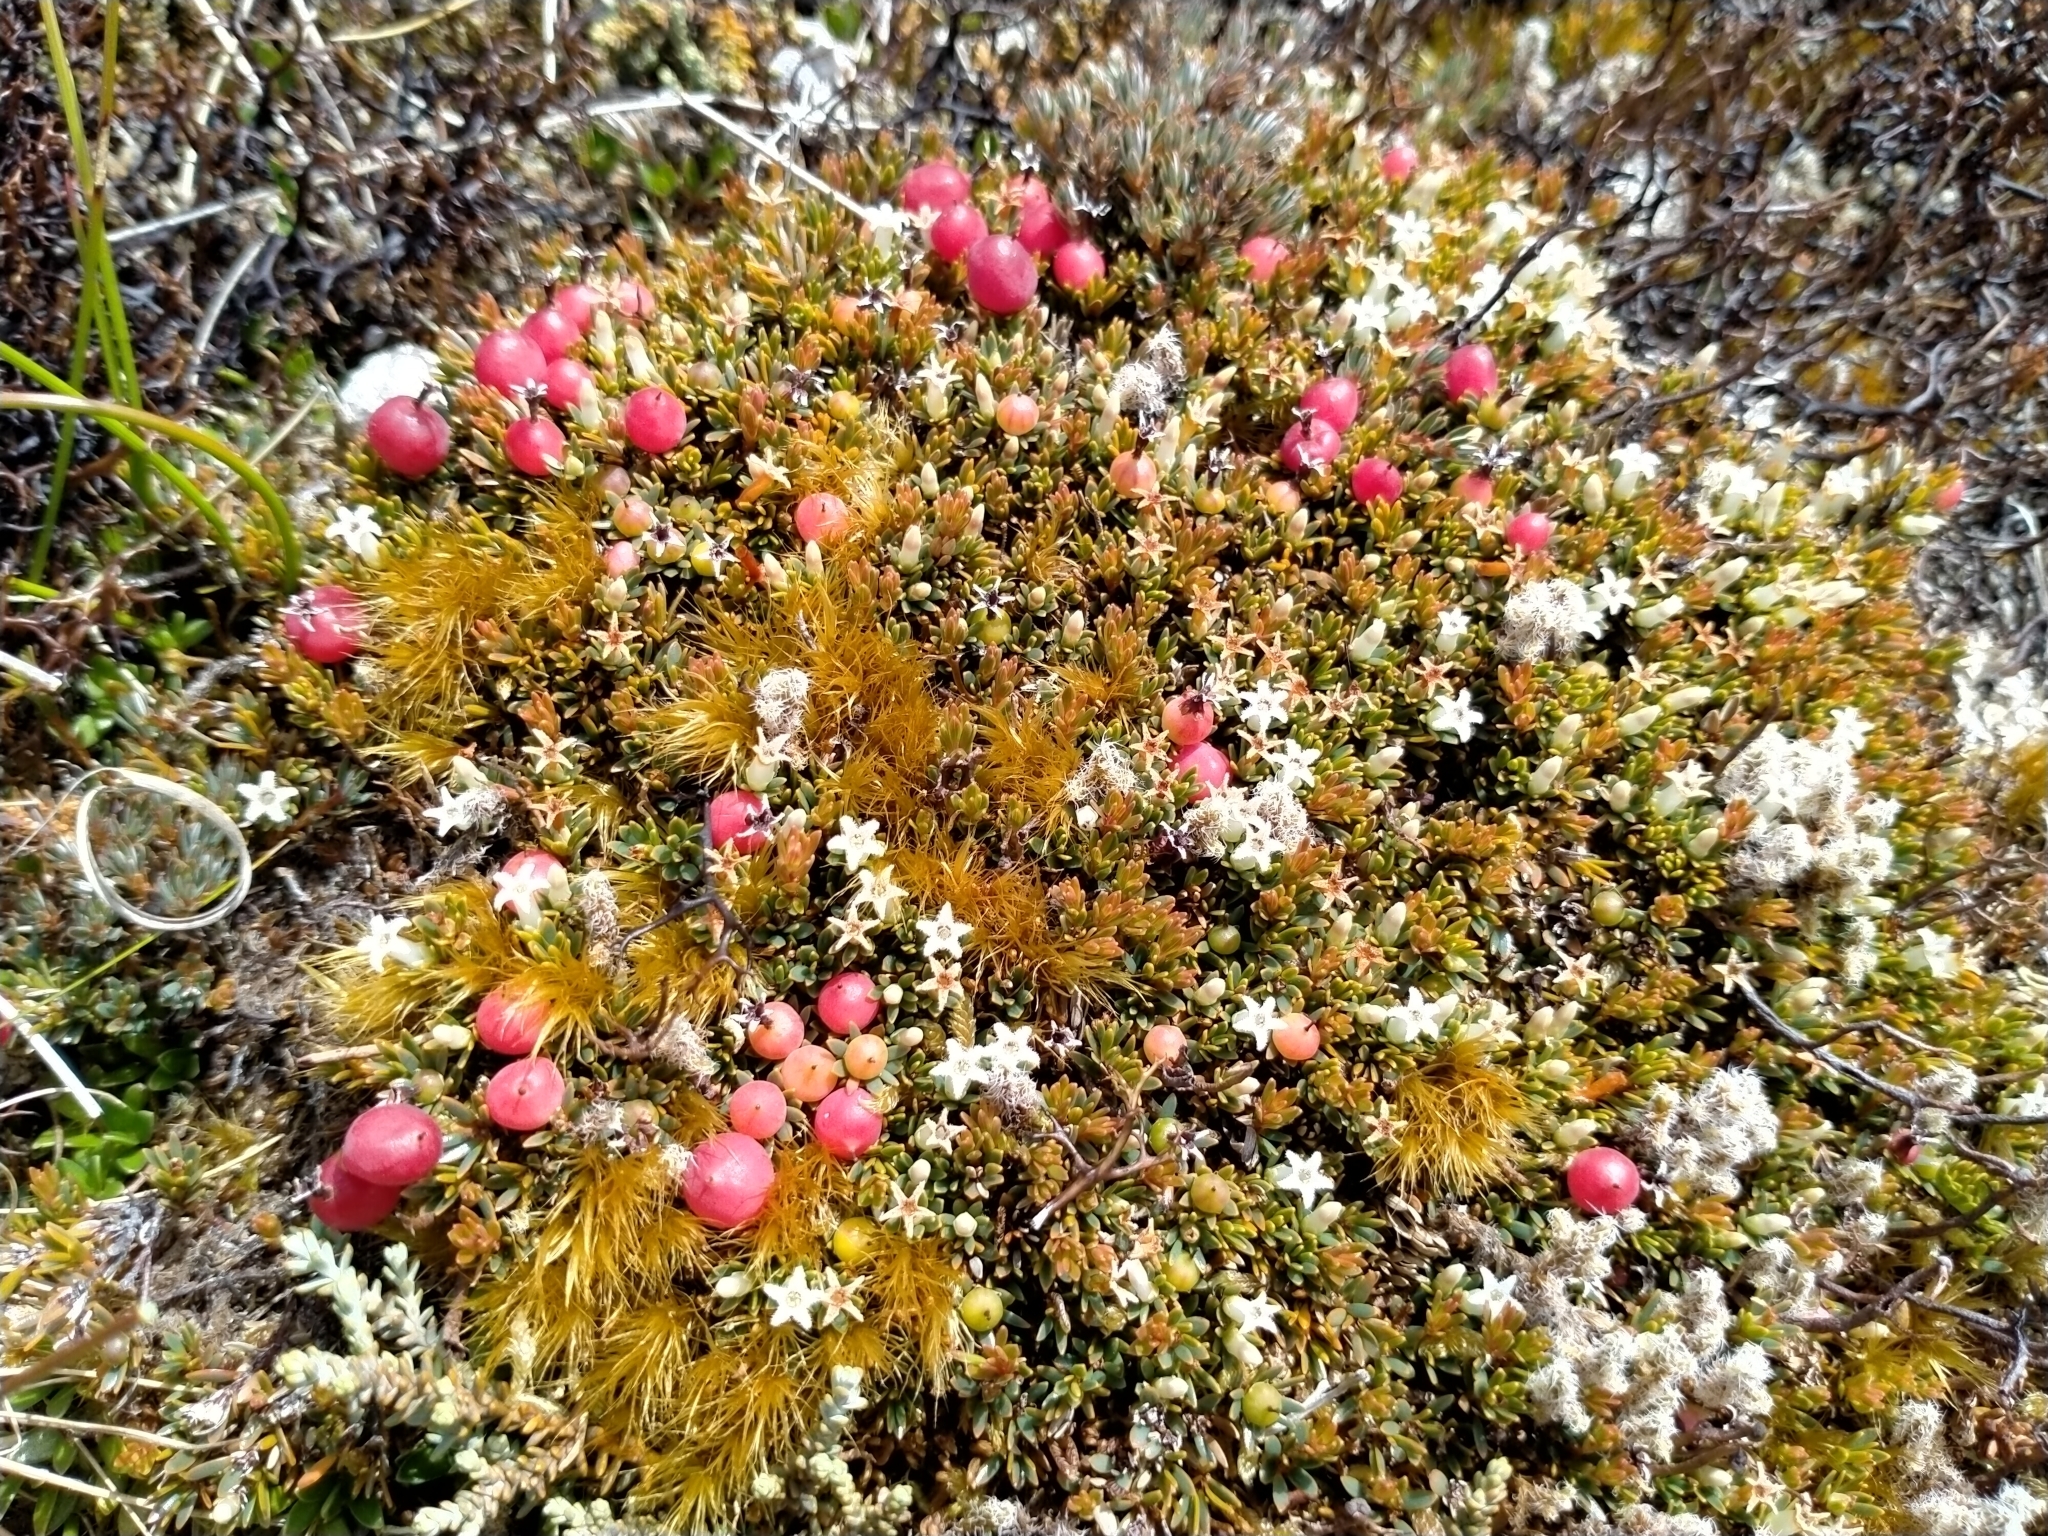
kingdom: Plantae
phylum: Tracheophyta
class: Magnoliopsida
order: Ericales
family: Ericaceae
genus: Pentachondra
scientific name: Pentachondra pumila
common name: Carpet-heath
